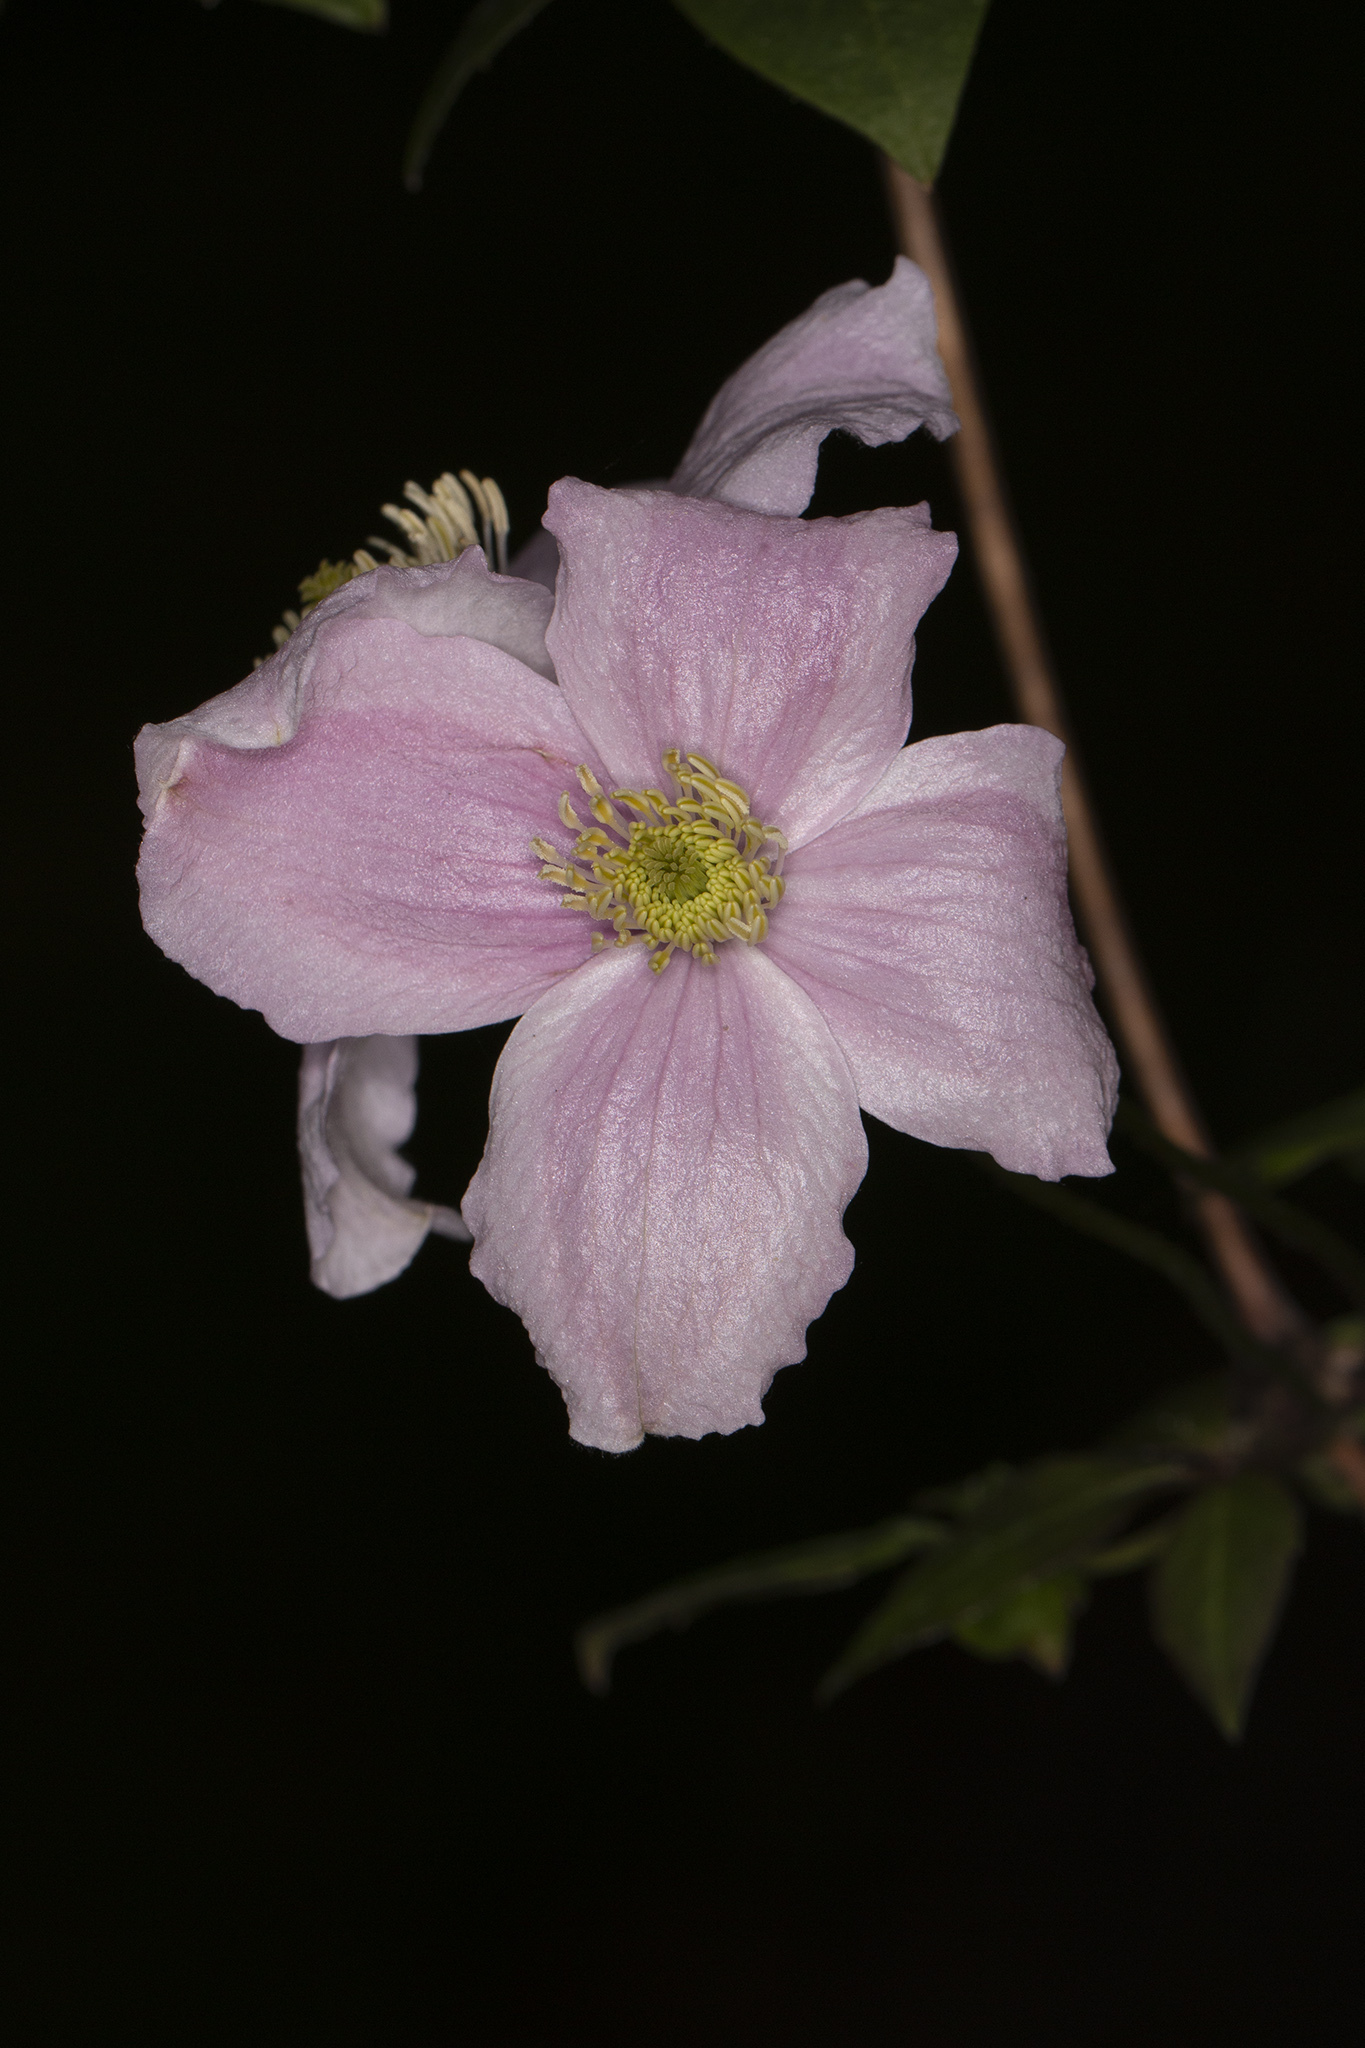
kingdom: Plantae
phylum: Tracheophyta
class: Magnoliopsida
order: Ranunculales
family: Ranunculaceae
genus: Clematis
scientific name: Clematis montana
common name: Himalayan clematis
